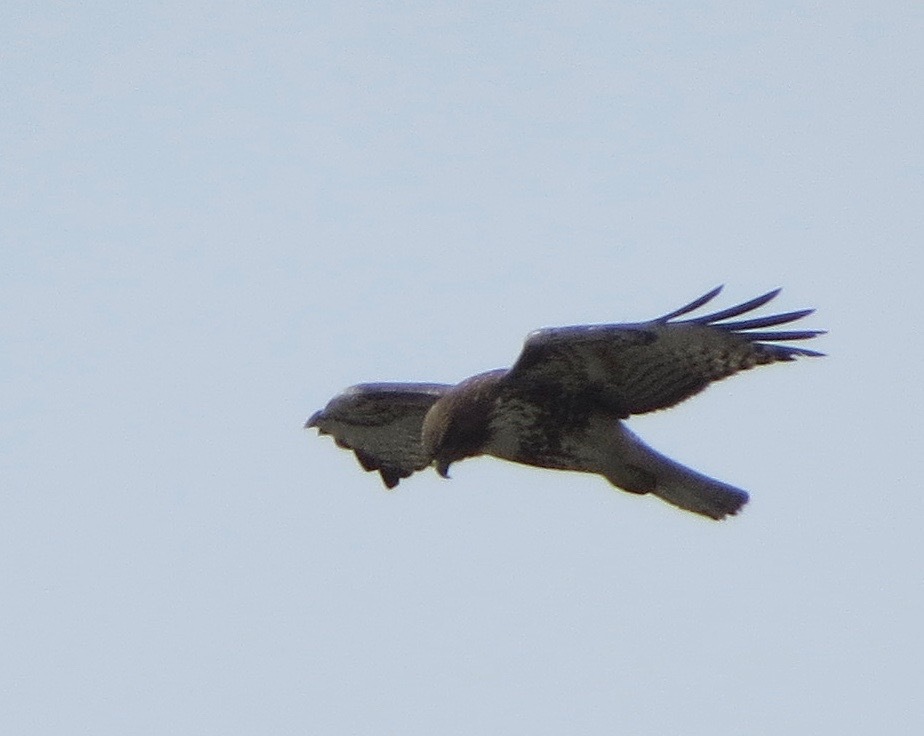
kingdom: Animalia
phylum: Chordata
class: Aves
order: Accipitriformes
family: Accipitridae
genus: Buteo
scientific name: Buteo jamaicensis
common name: Red-tailed hawk
